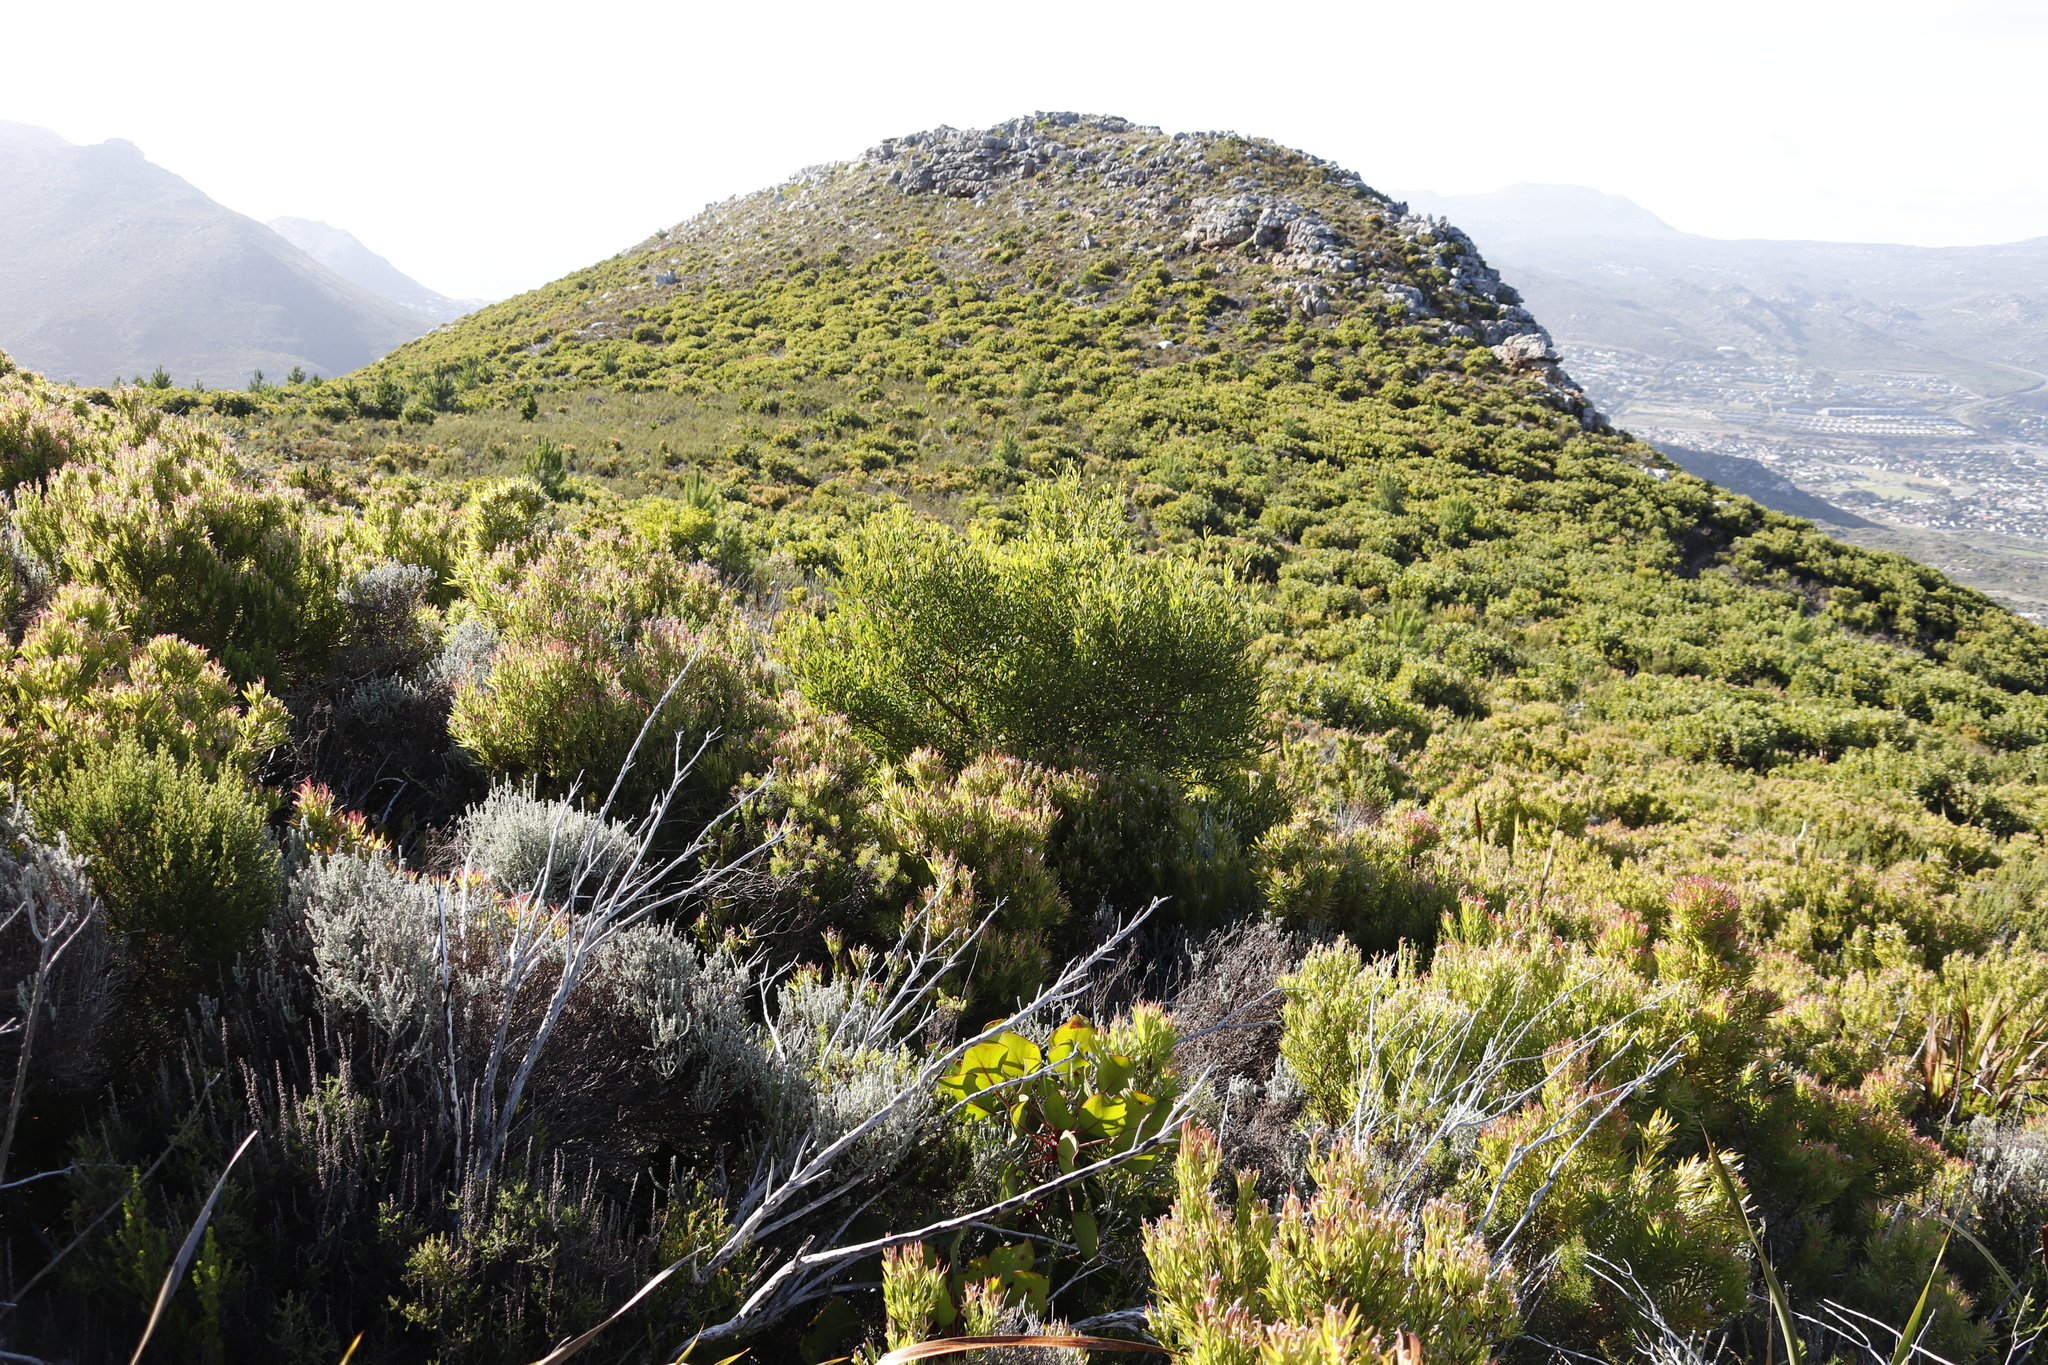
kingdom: Plantae
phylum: Tracheophyta
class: Magnoliopsida
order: Fabales
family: Fabaceae
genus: Acacia
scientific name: Acacia cyclops
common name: Coastal wattle
